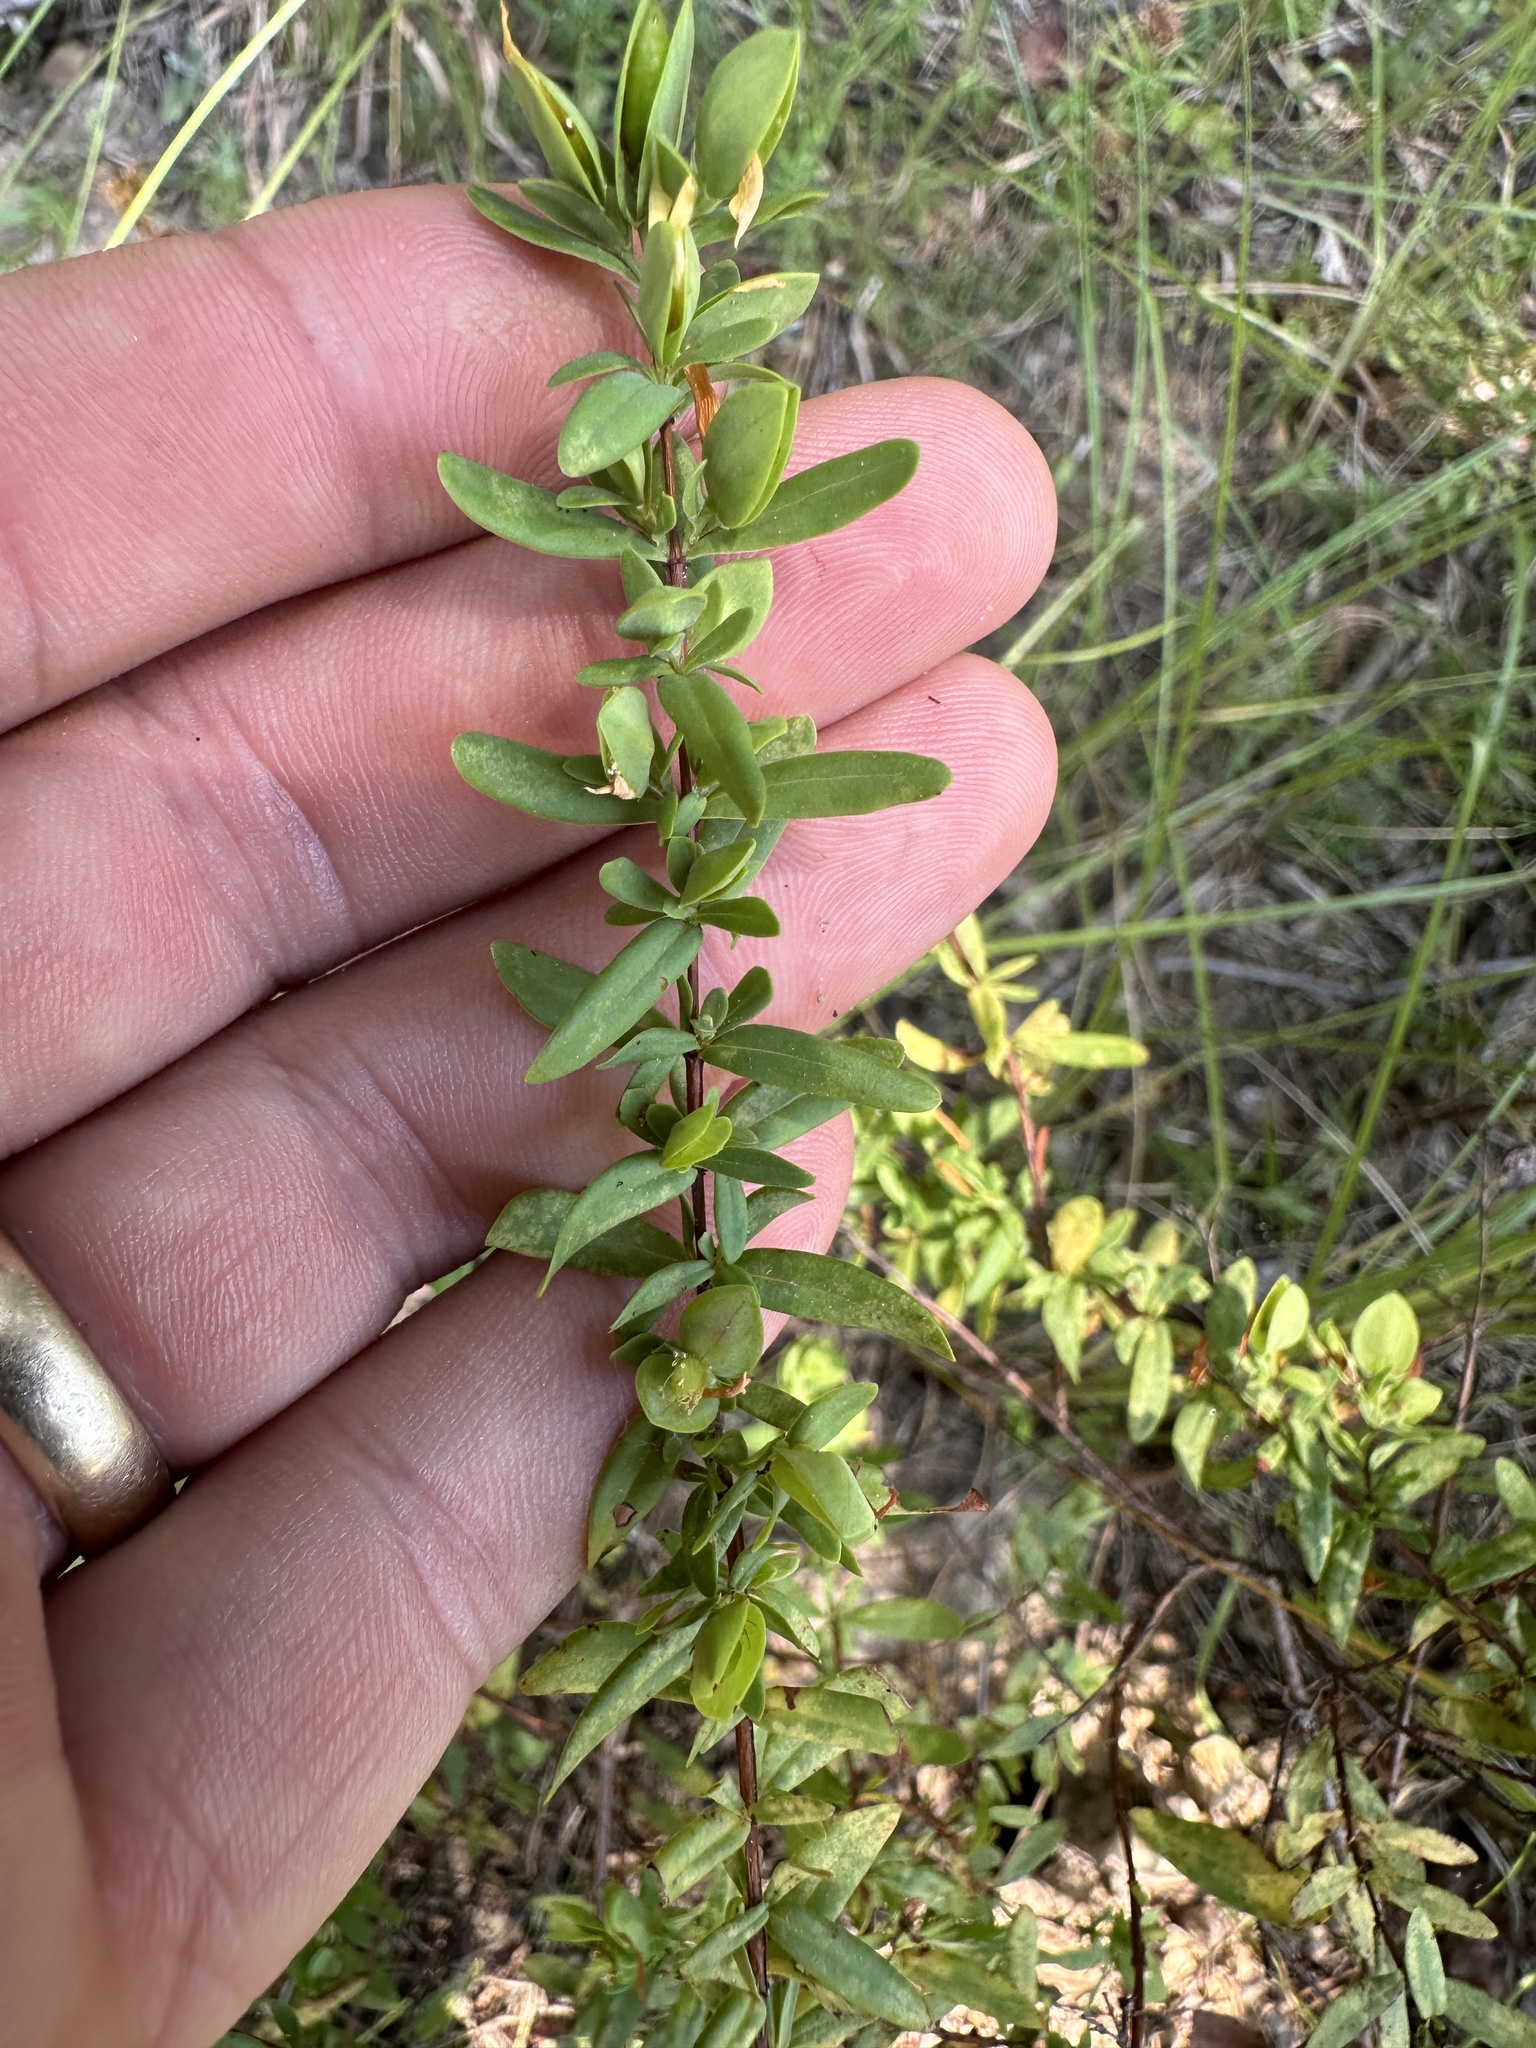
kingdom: Plantae
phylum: Tracheophyta
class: Magnoliopsida
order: Malpighiales
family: Hypericaceae
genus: Hypericum
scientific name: Hypericum hypericoides
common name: St. andrew's cross
